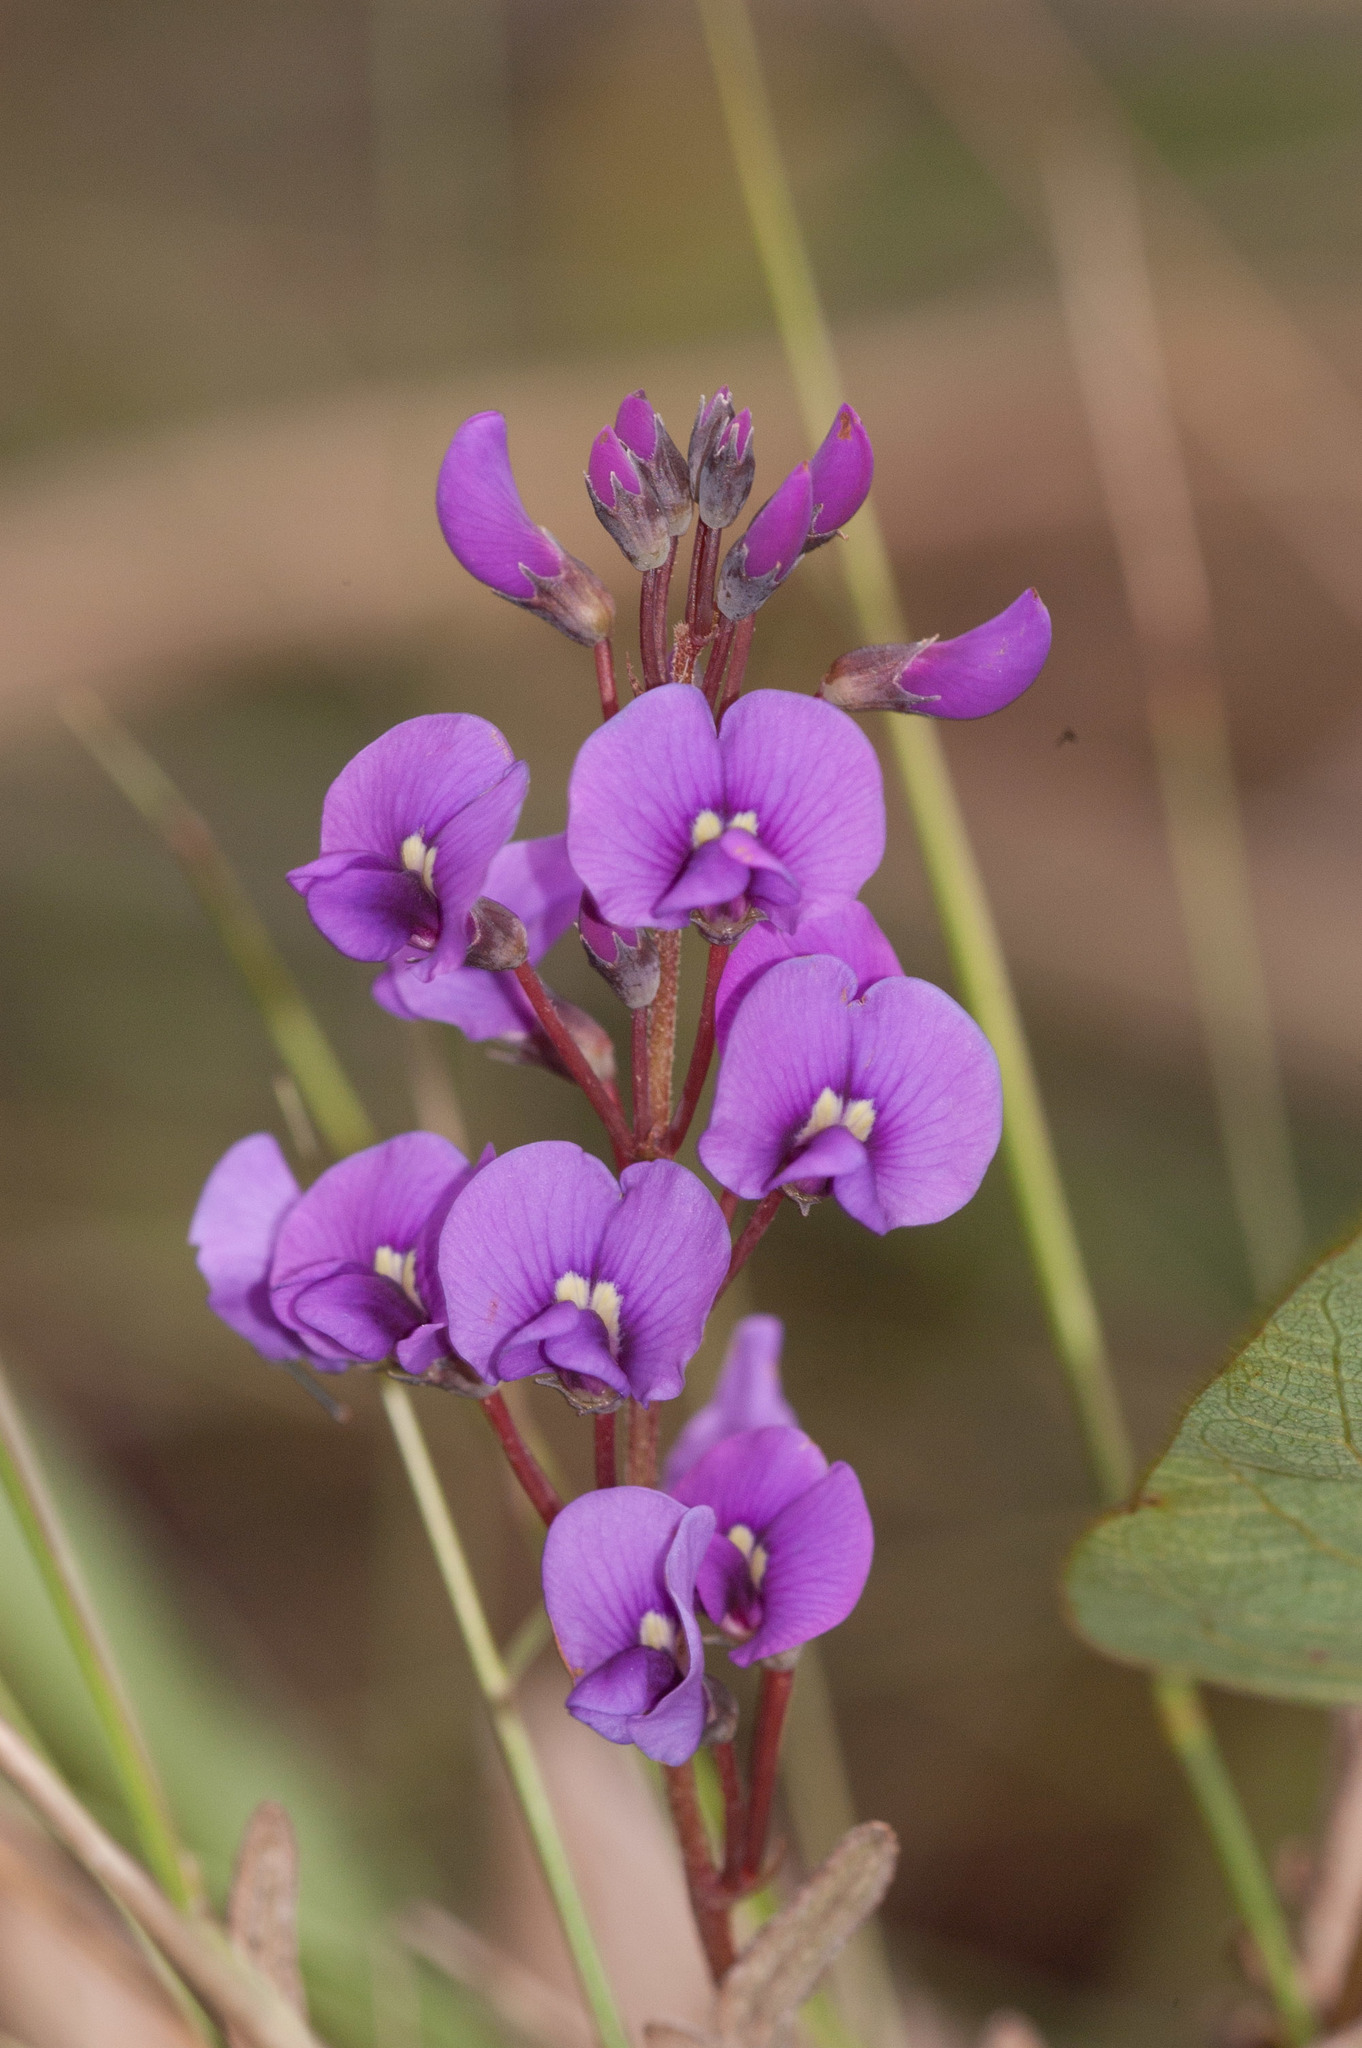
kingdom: Plantae
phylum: Tracheophyta
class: Magnoliopsida
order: Fabales
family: Fabaceae
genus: Hardenbergia
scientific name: Hardenbergia violacea
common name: Coral-pea
